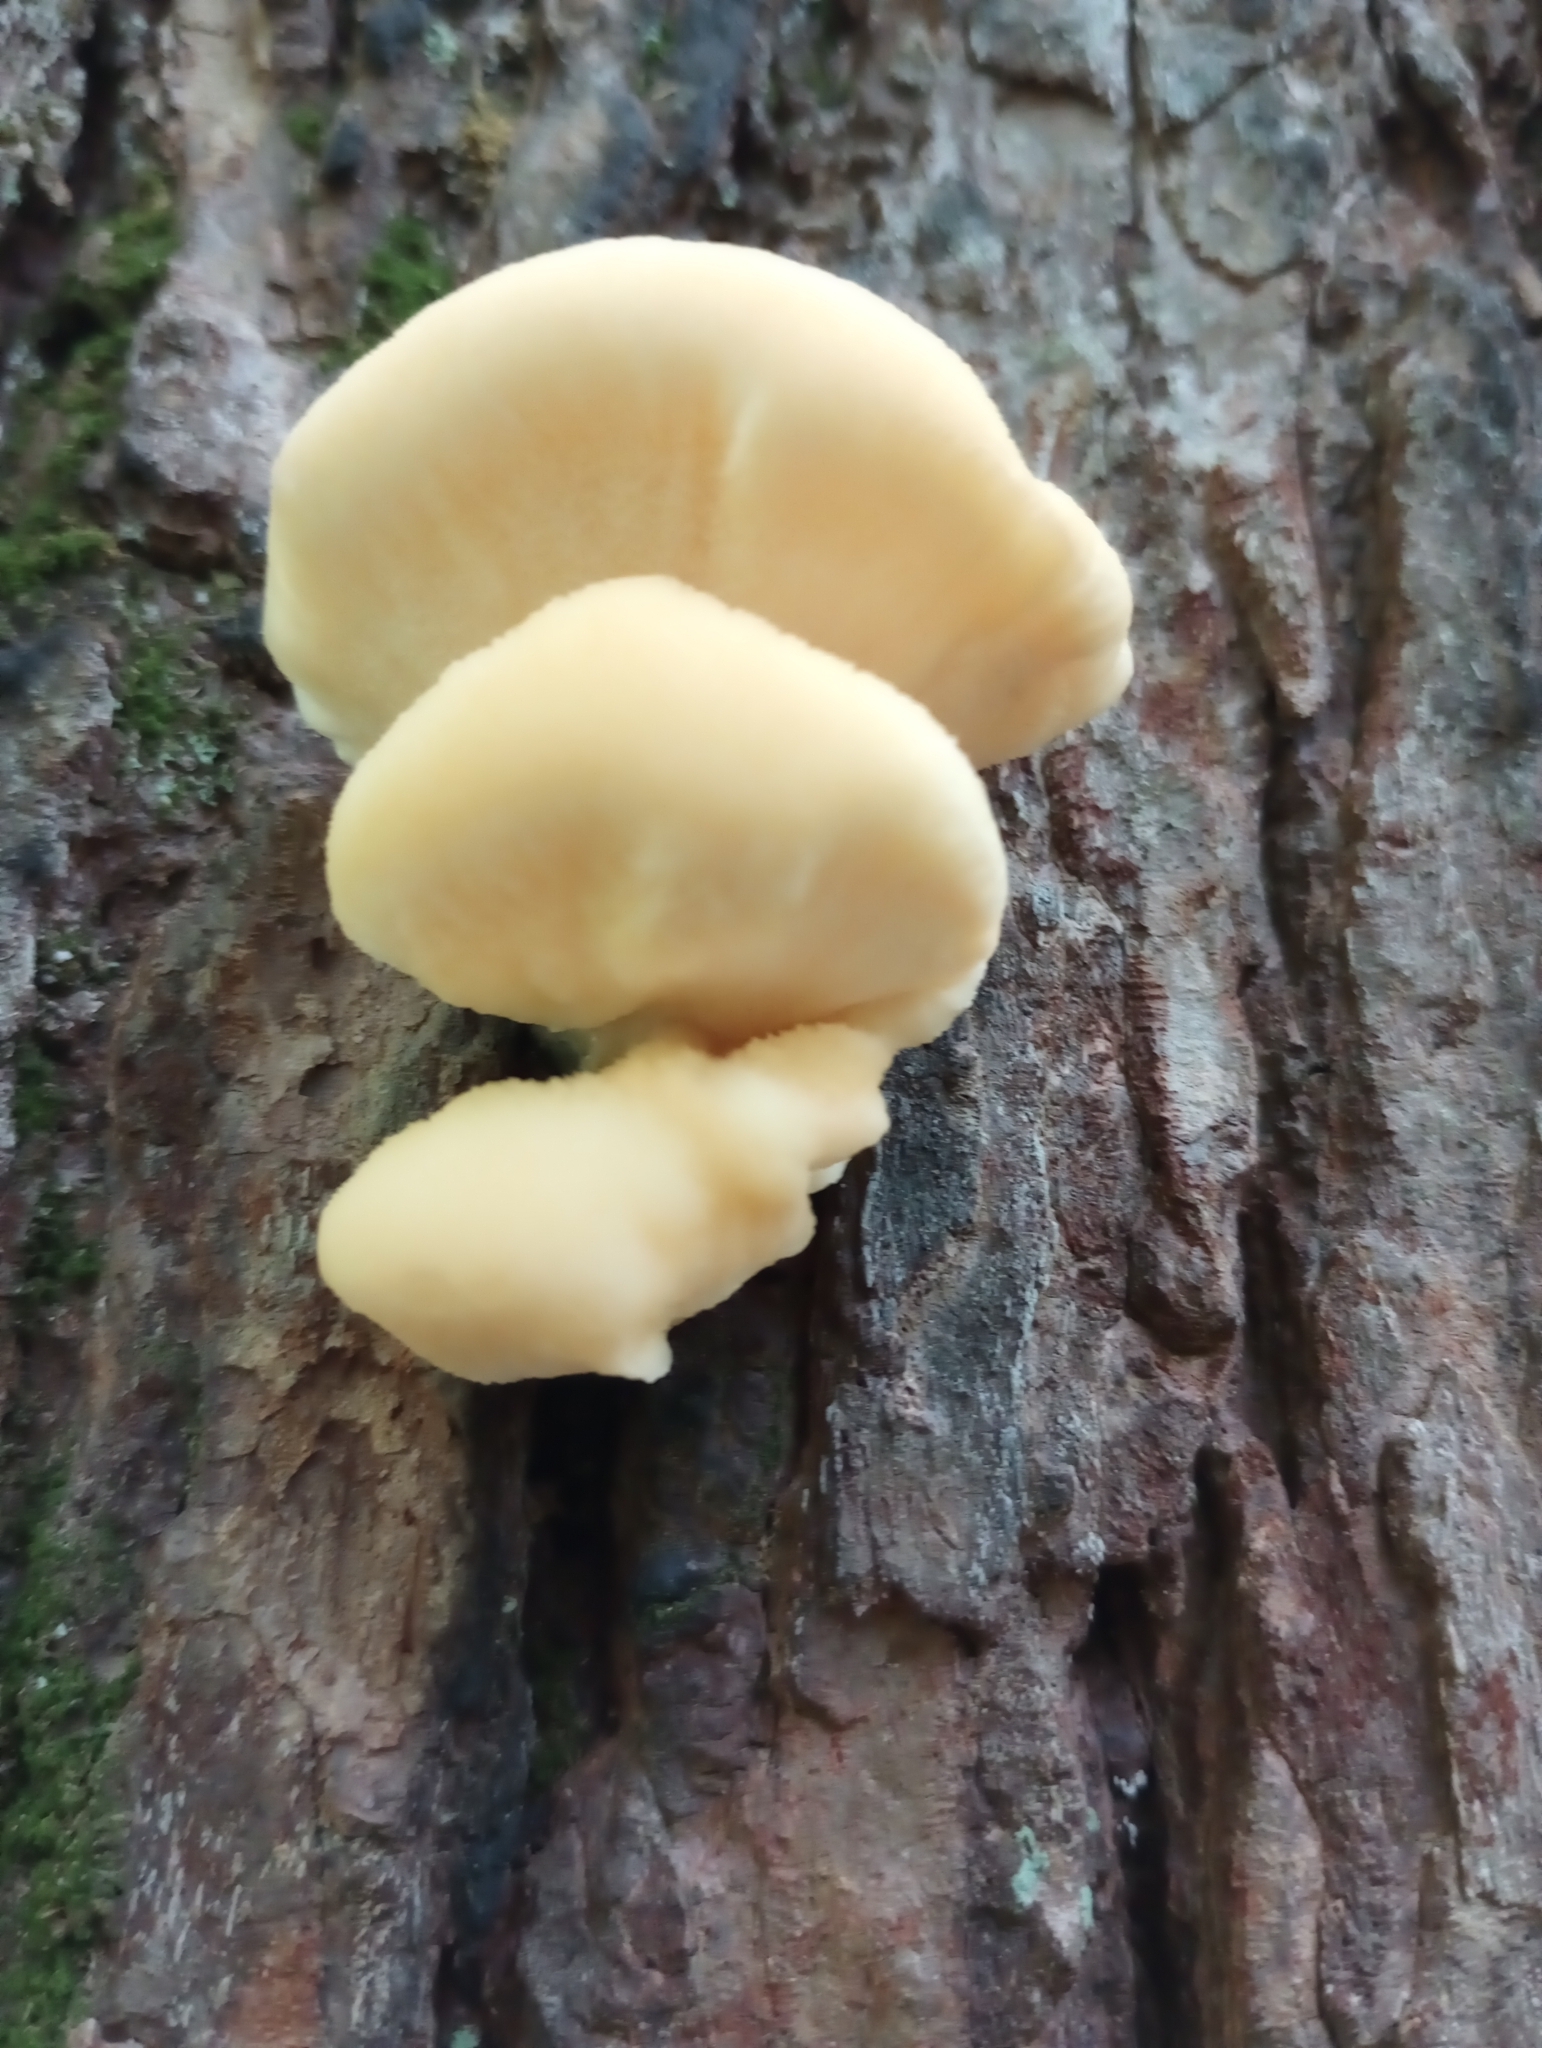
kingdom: Fungi
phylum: Basidiomycota
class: Agaricomycetes
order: Polyporales
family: Fomitopsidaceae
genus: Climacocystis
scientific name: Climacocystis borealis
